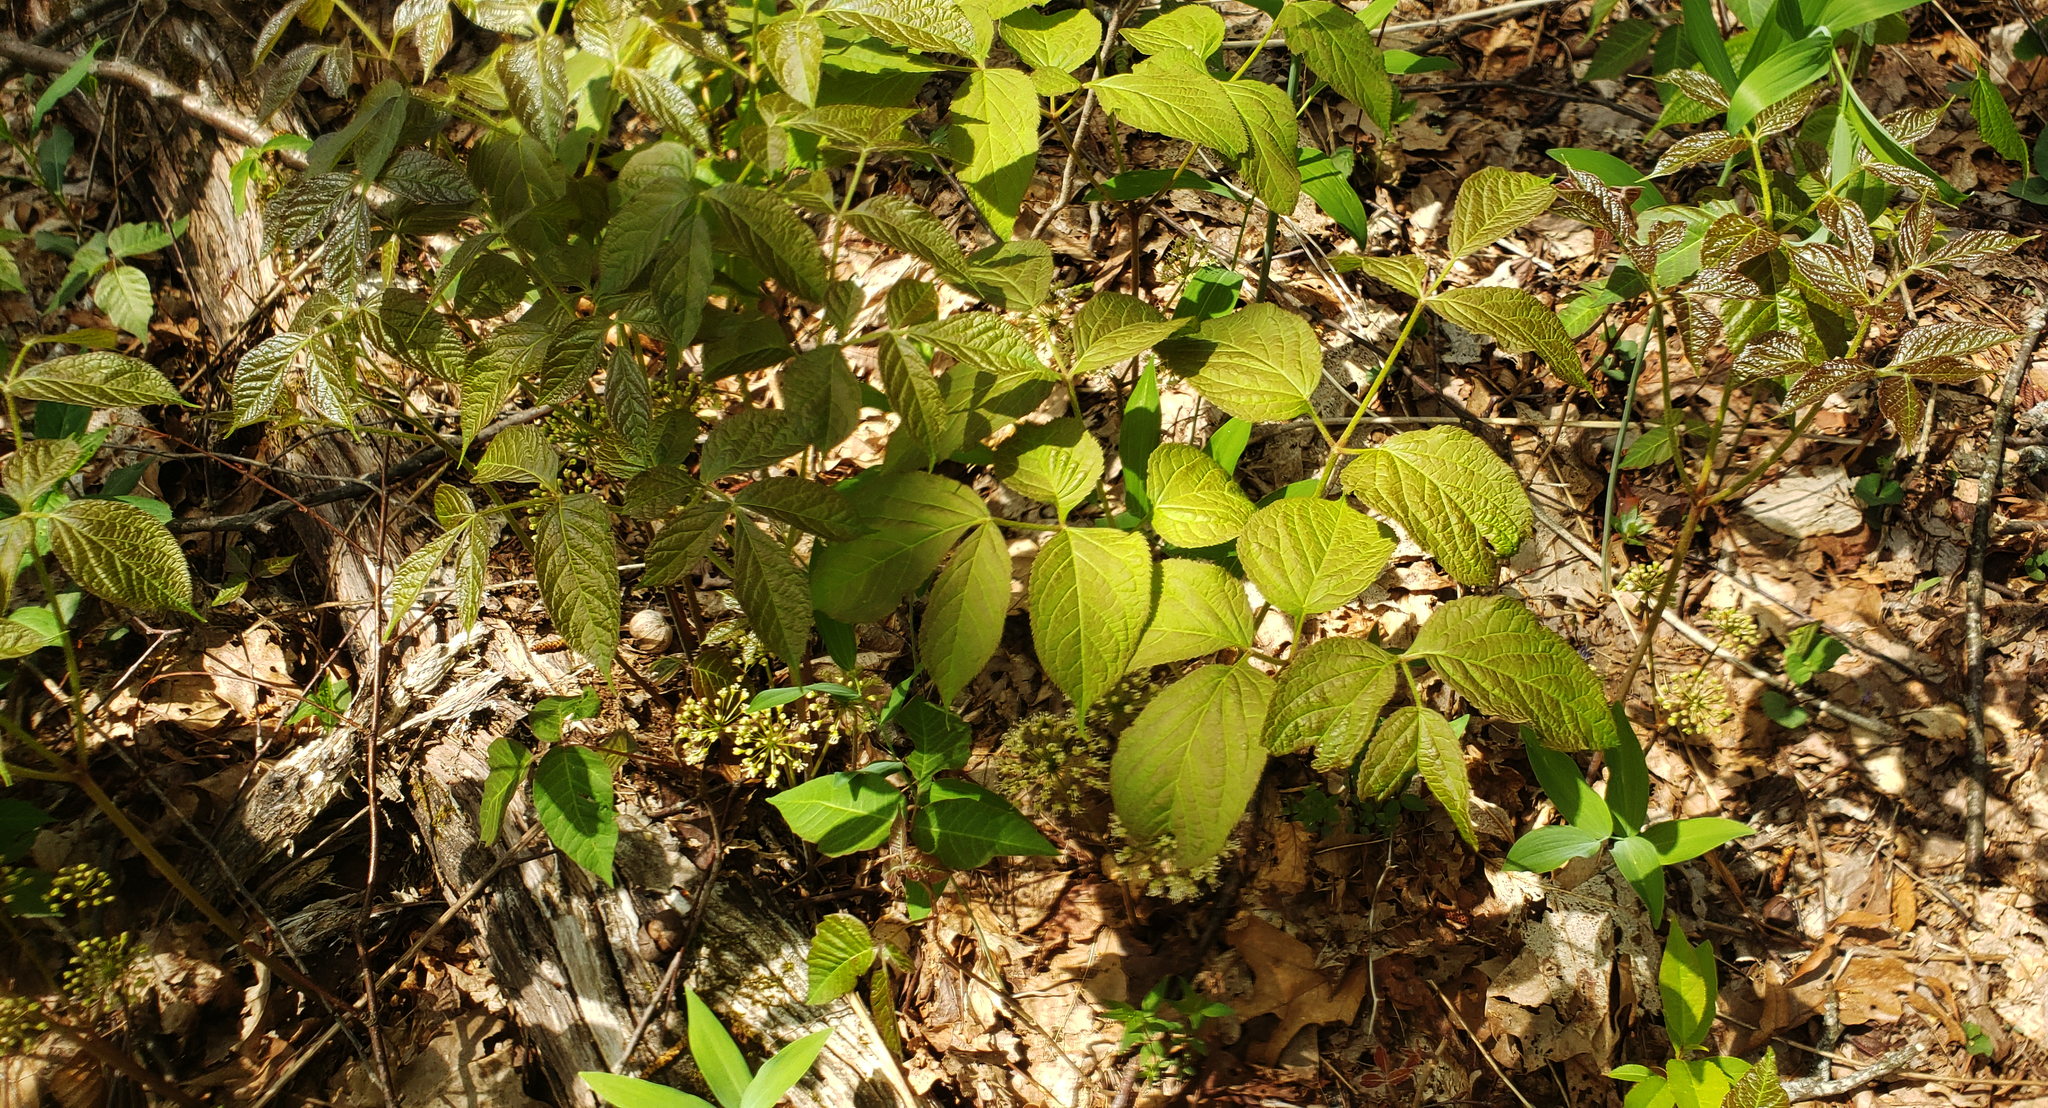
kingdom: Plantae
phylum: Tracheophyta
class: Magnoliopsida
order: Apiales
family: Araliaceae
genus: Aralia
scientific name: Aralia nudicaulis
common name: Wild sarsaparilla
